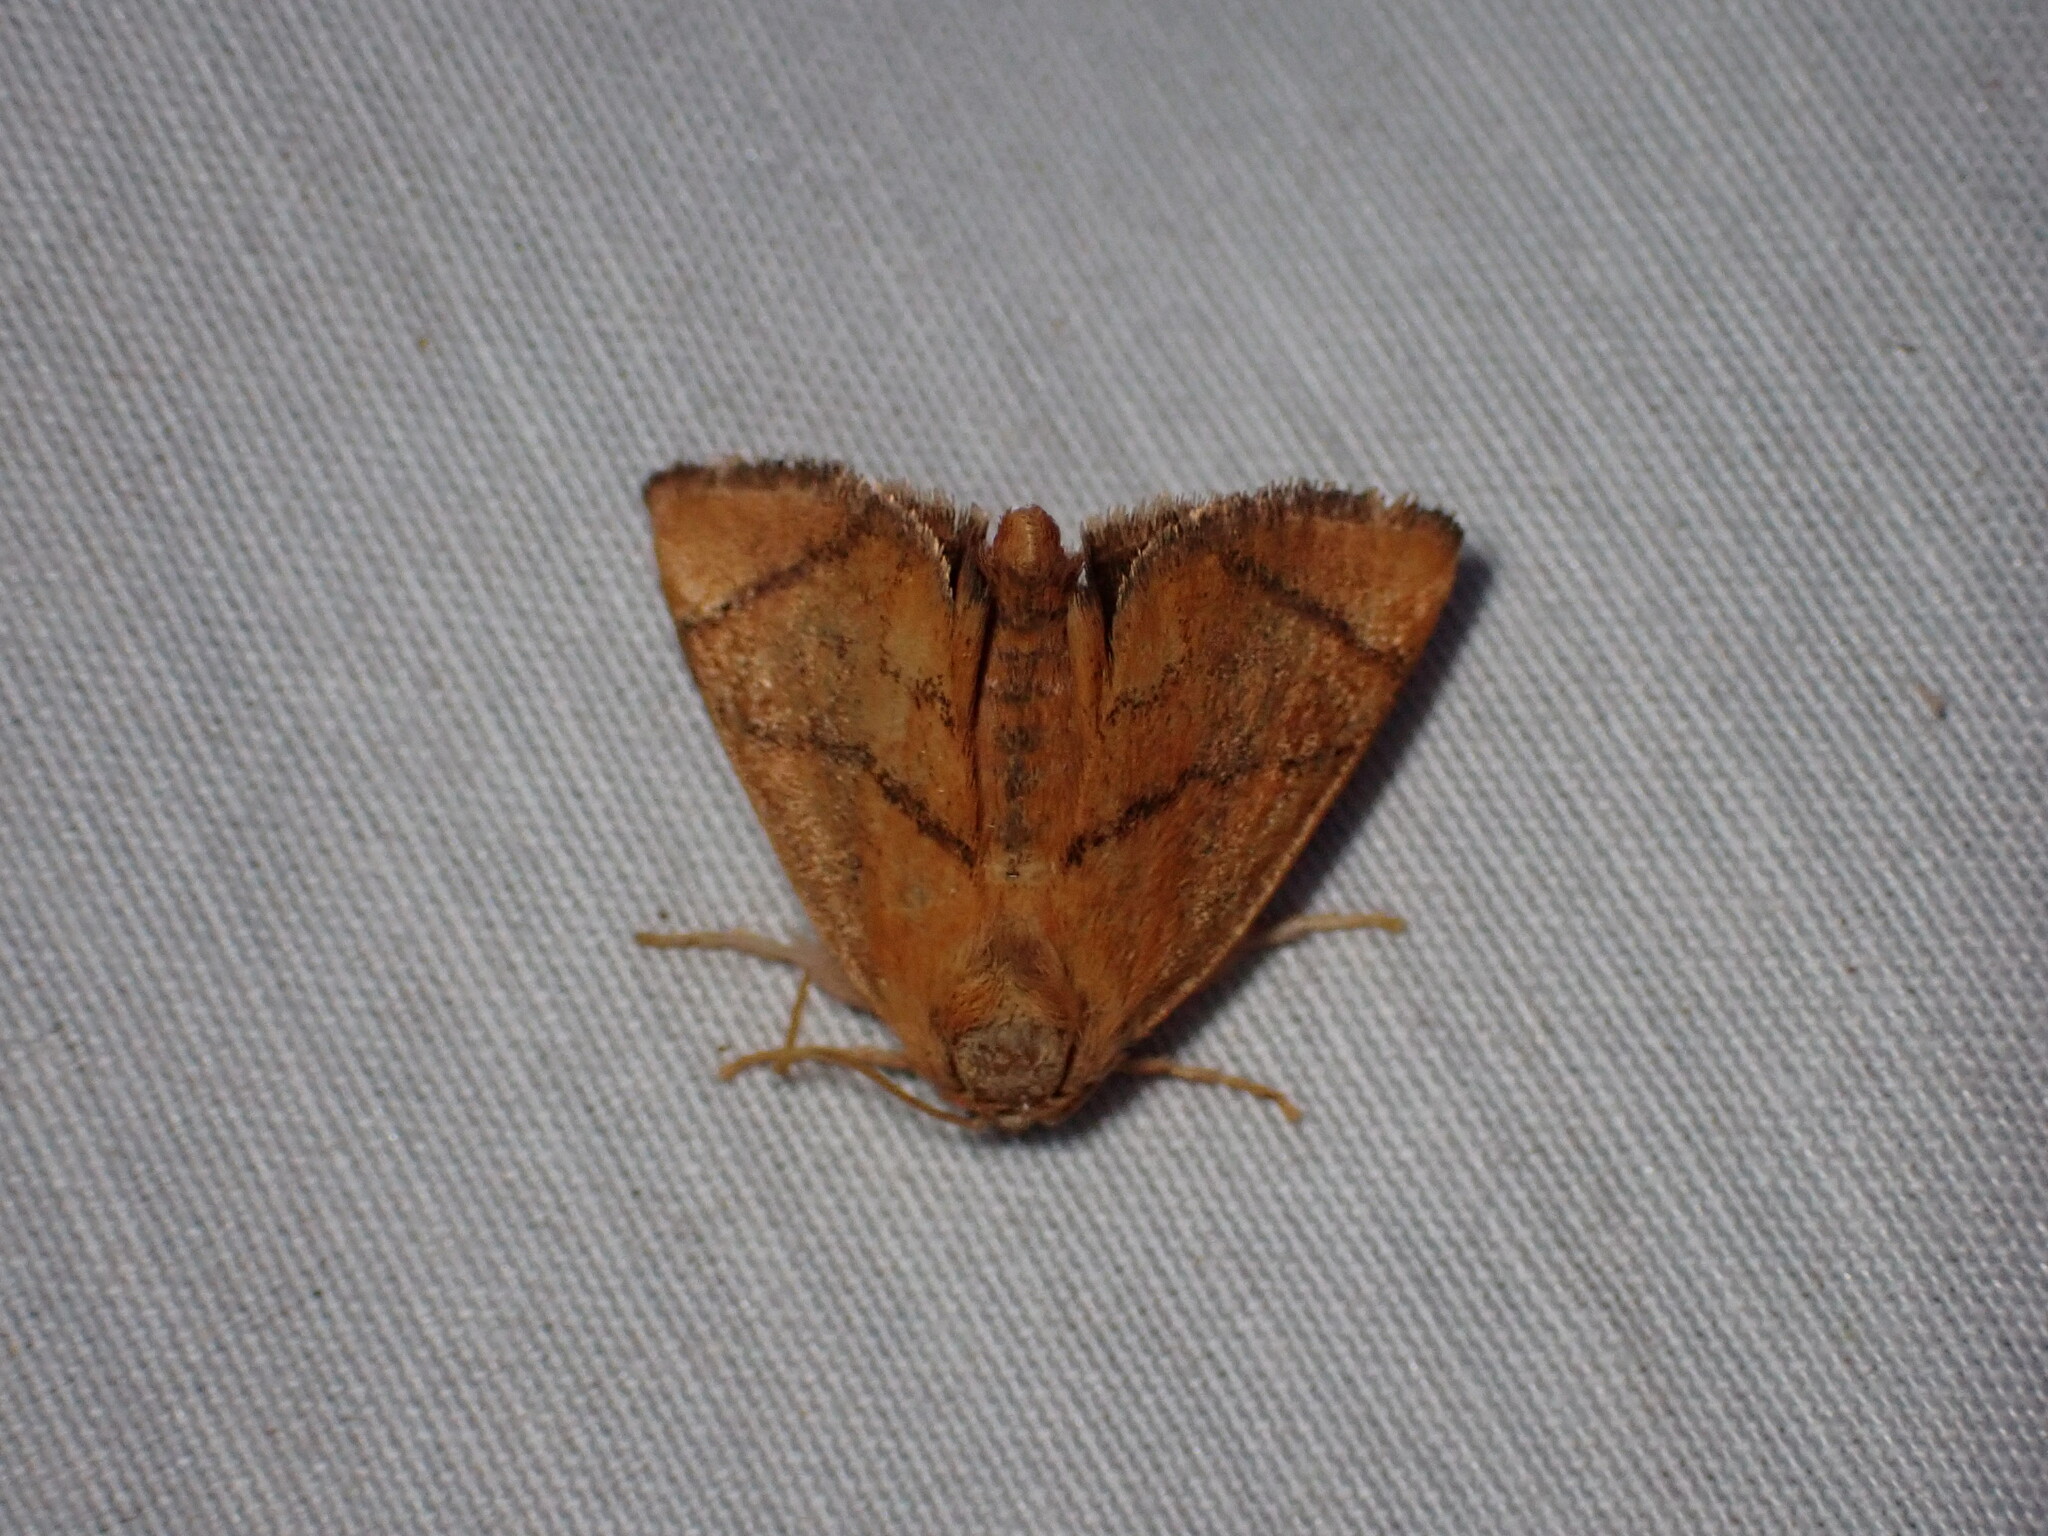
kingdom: Animalia
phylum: Arthropoda
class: Insecta
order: Lepidoptera
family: Limacodidae
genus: Apoda
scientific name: Apoda limacodes
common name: Festoon
